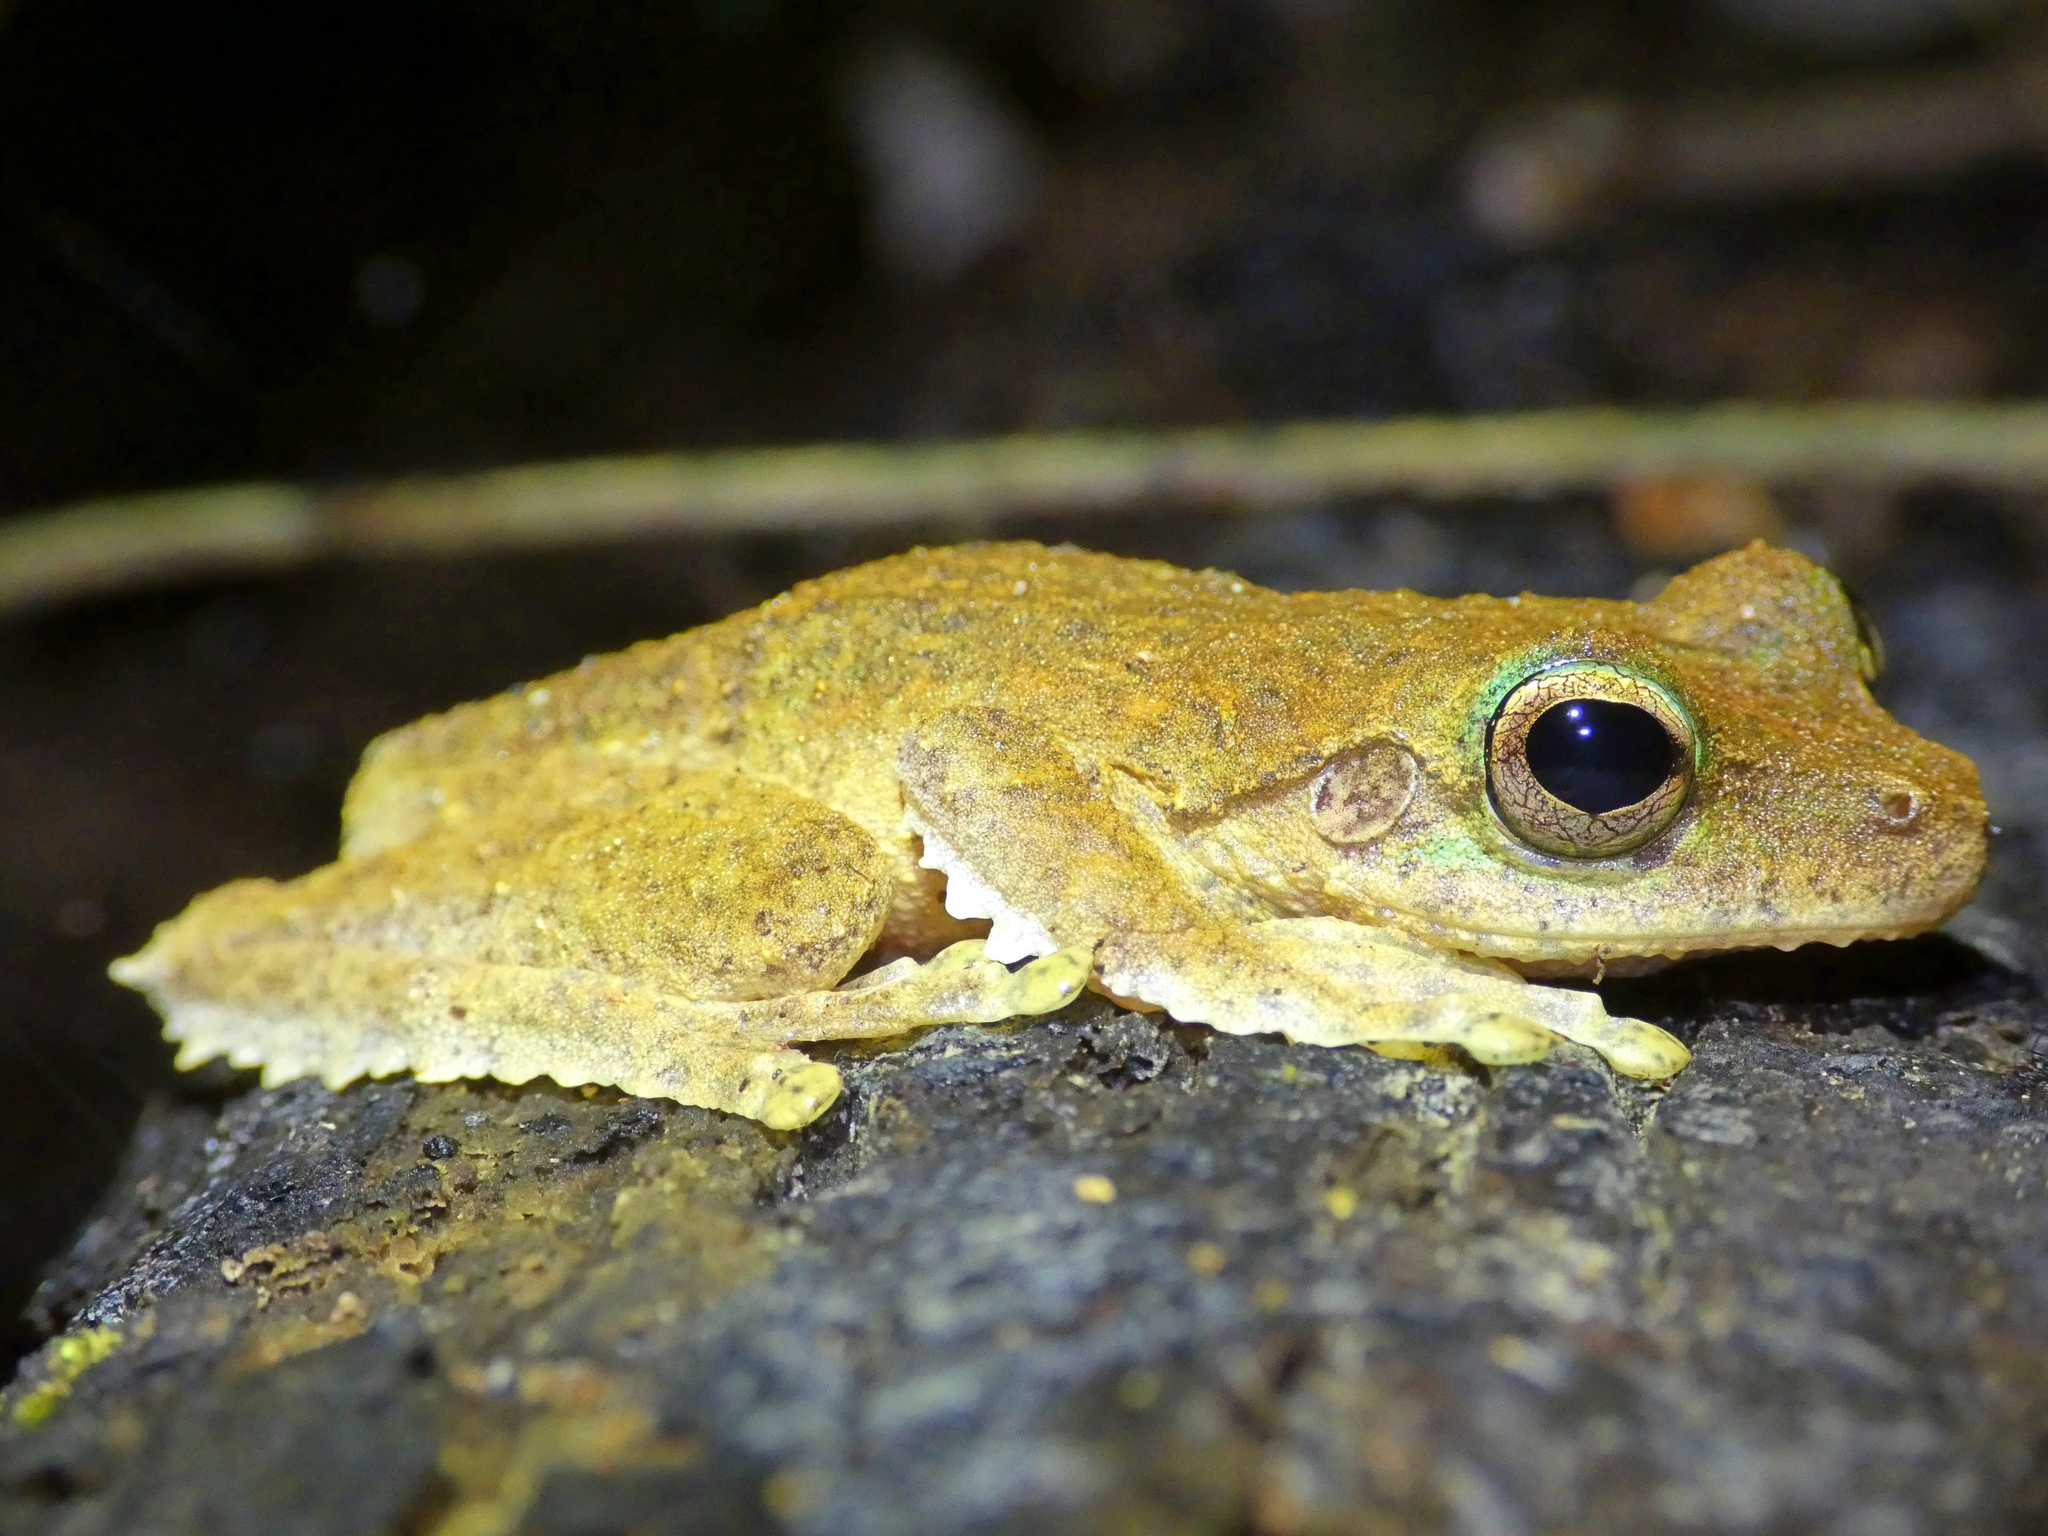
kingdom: Animalia
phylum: Chordata
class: Amphibia
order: Anura
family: Pelodryadidae
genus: Ranoidea
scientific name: Ranoidea serrata
